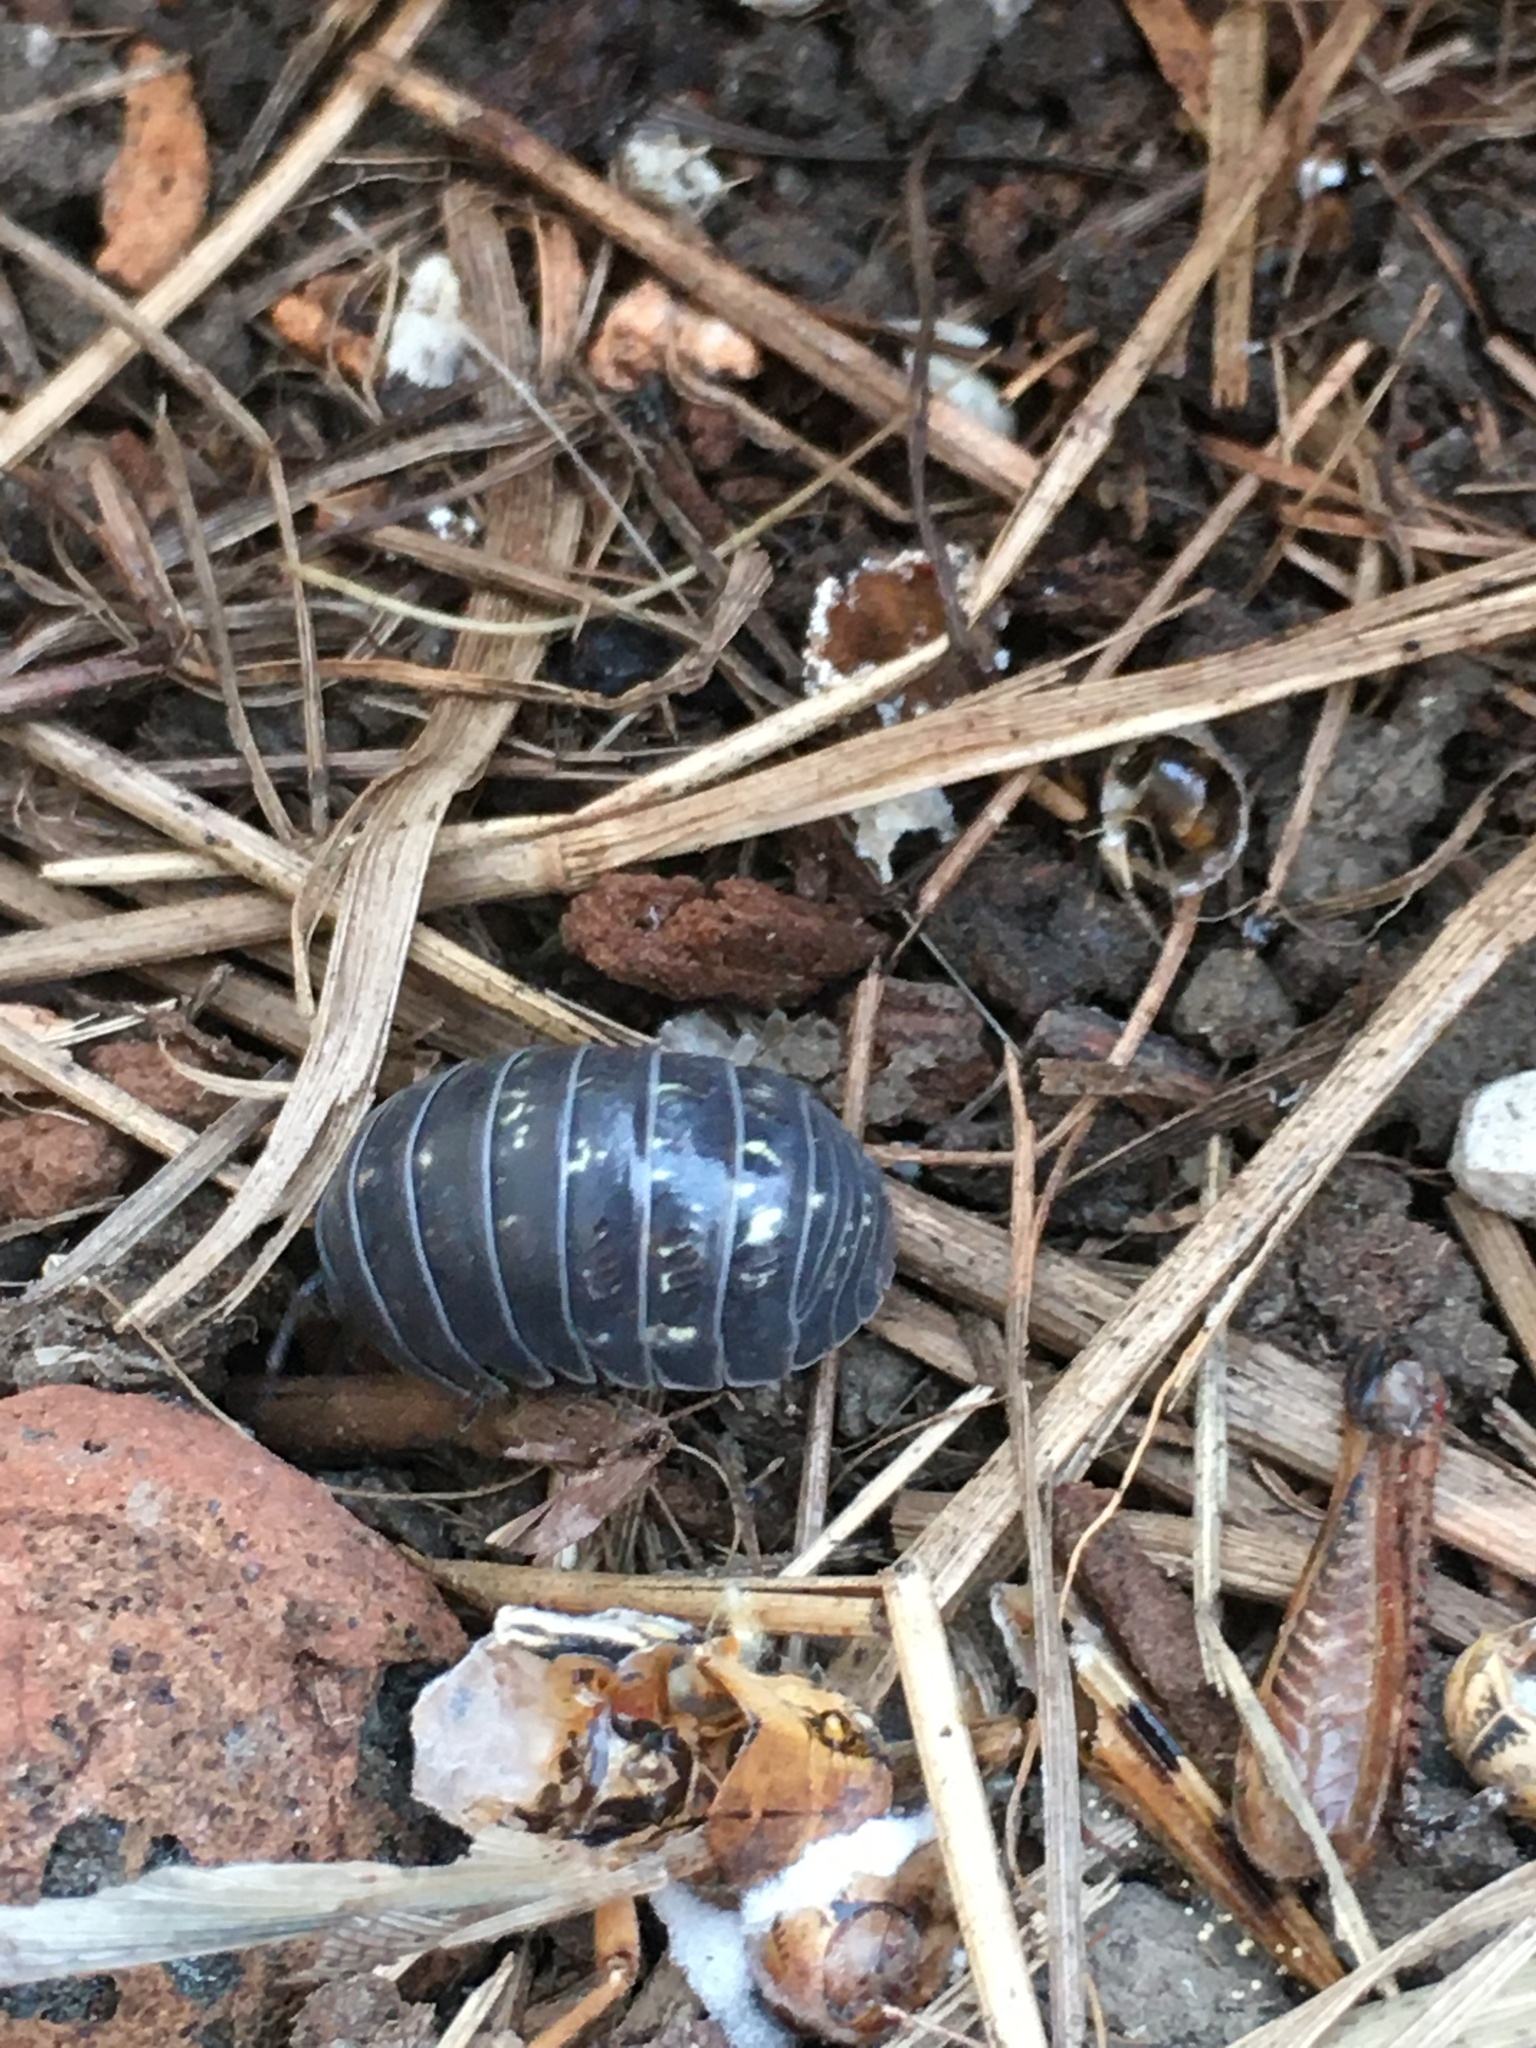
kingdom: Animalia
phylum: Arthropoda
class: Malacostraca
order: Isopoda
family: Armadillidiidae
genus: Armadillidium
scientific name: Armadillidium vulgare
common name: Common pill woodlouse
